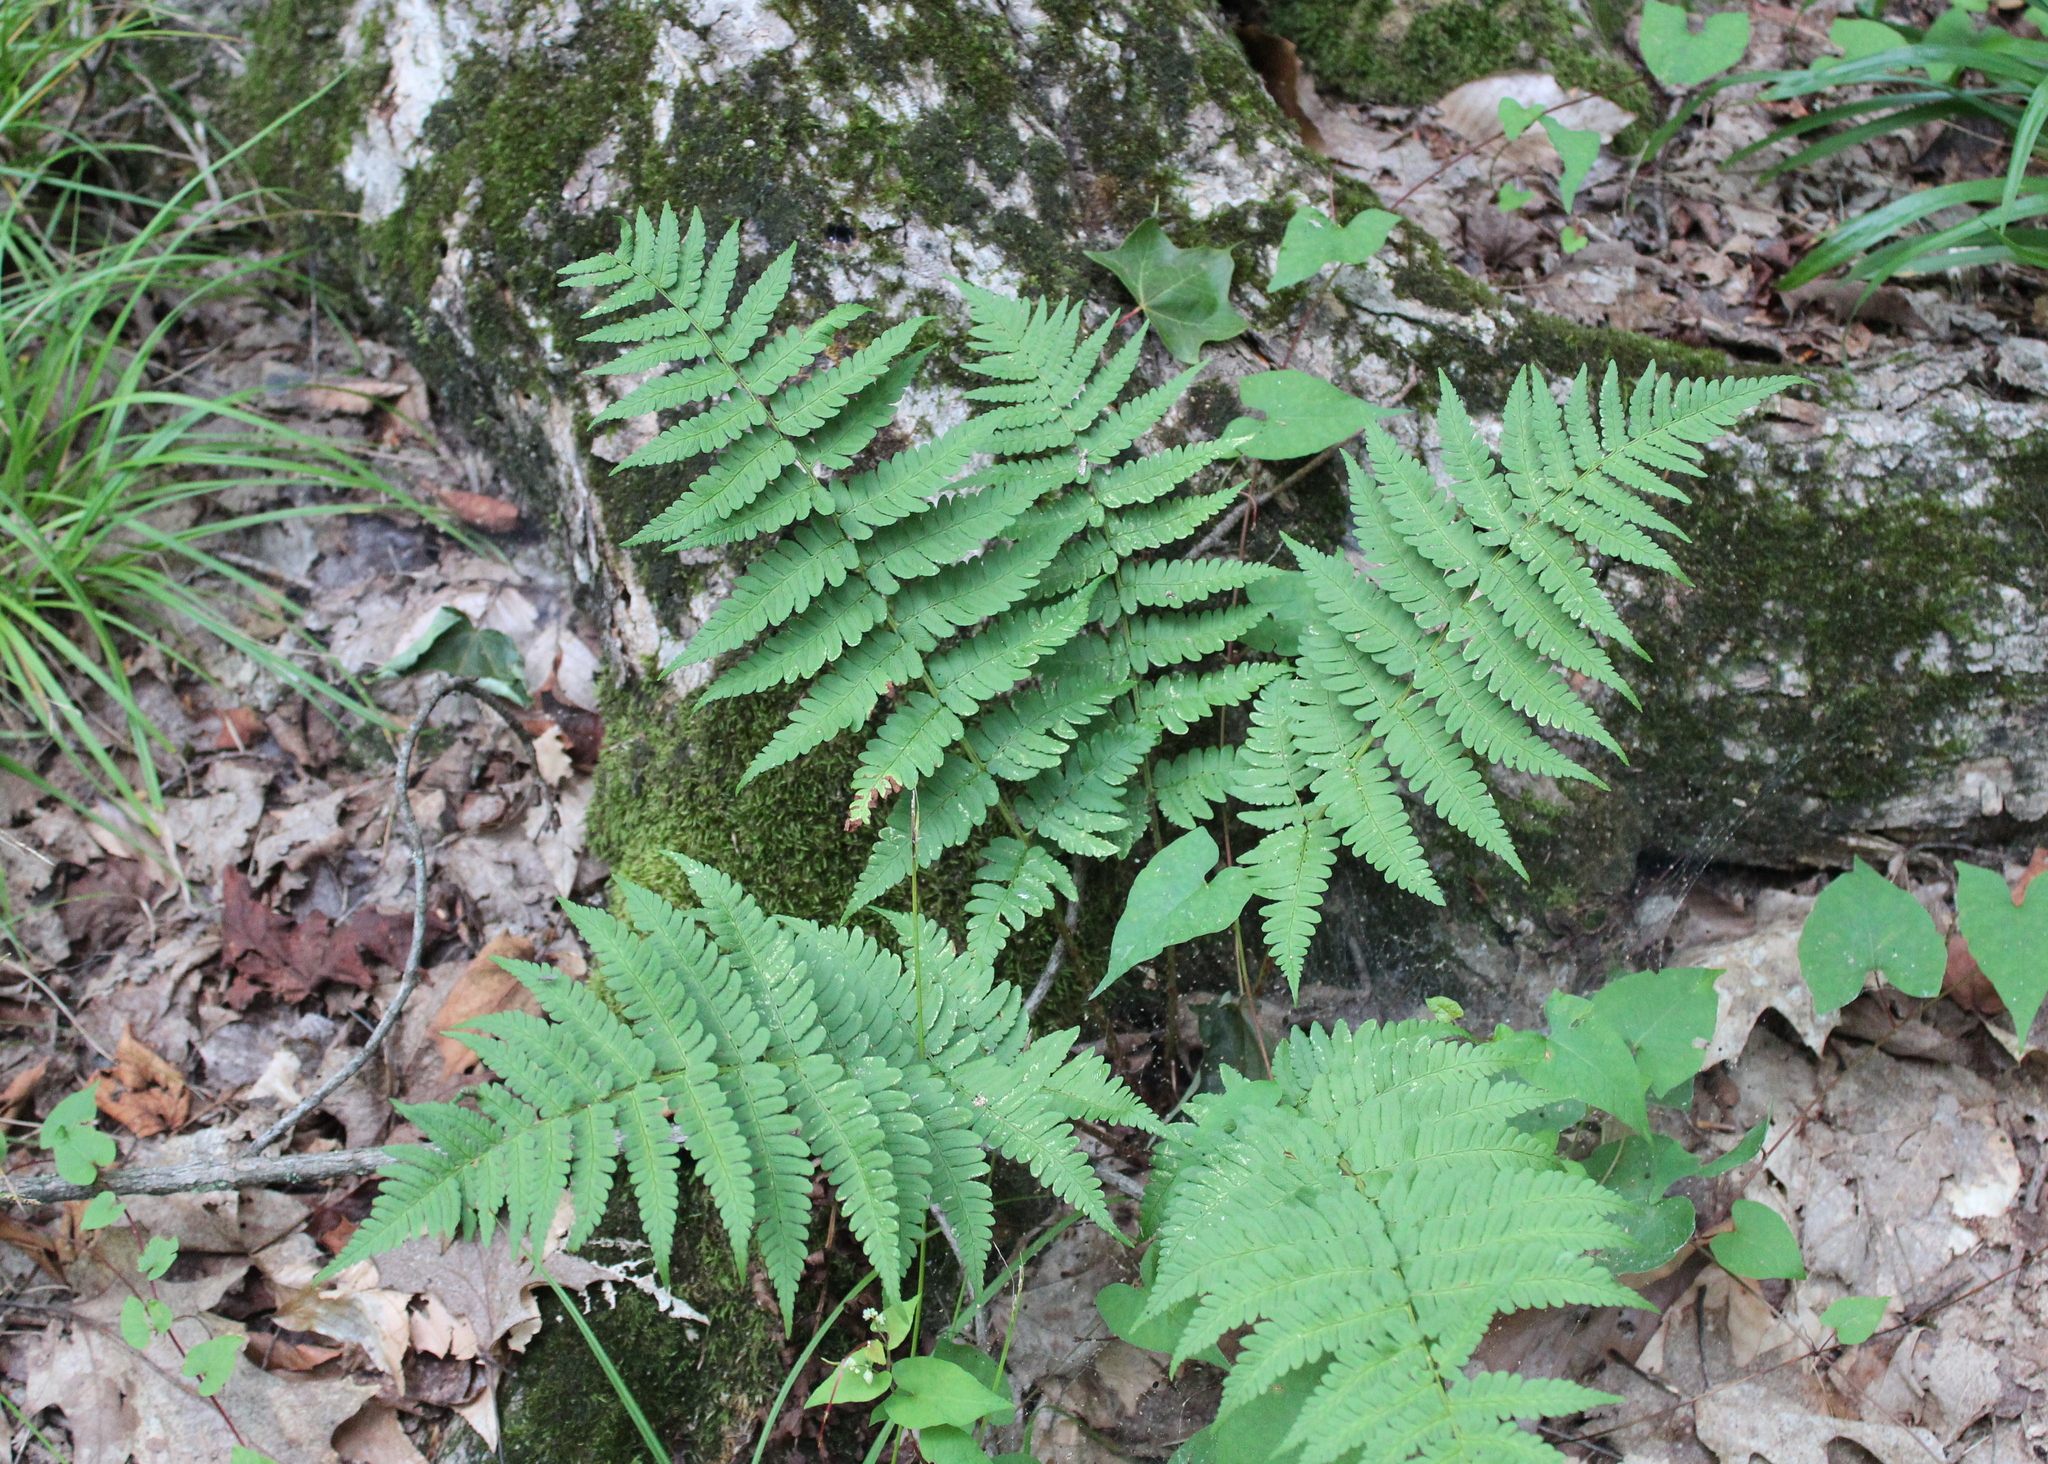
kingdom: Plantae
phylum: Tracheophyta
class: Polypodiopsida
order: Polypodiales
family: Dryopteridaceae
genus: Dryopteris
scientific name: Dryopteris marginalis
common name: Marginal wood fern
